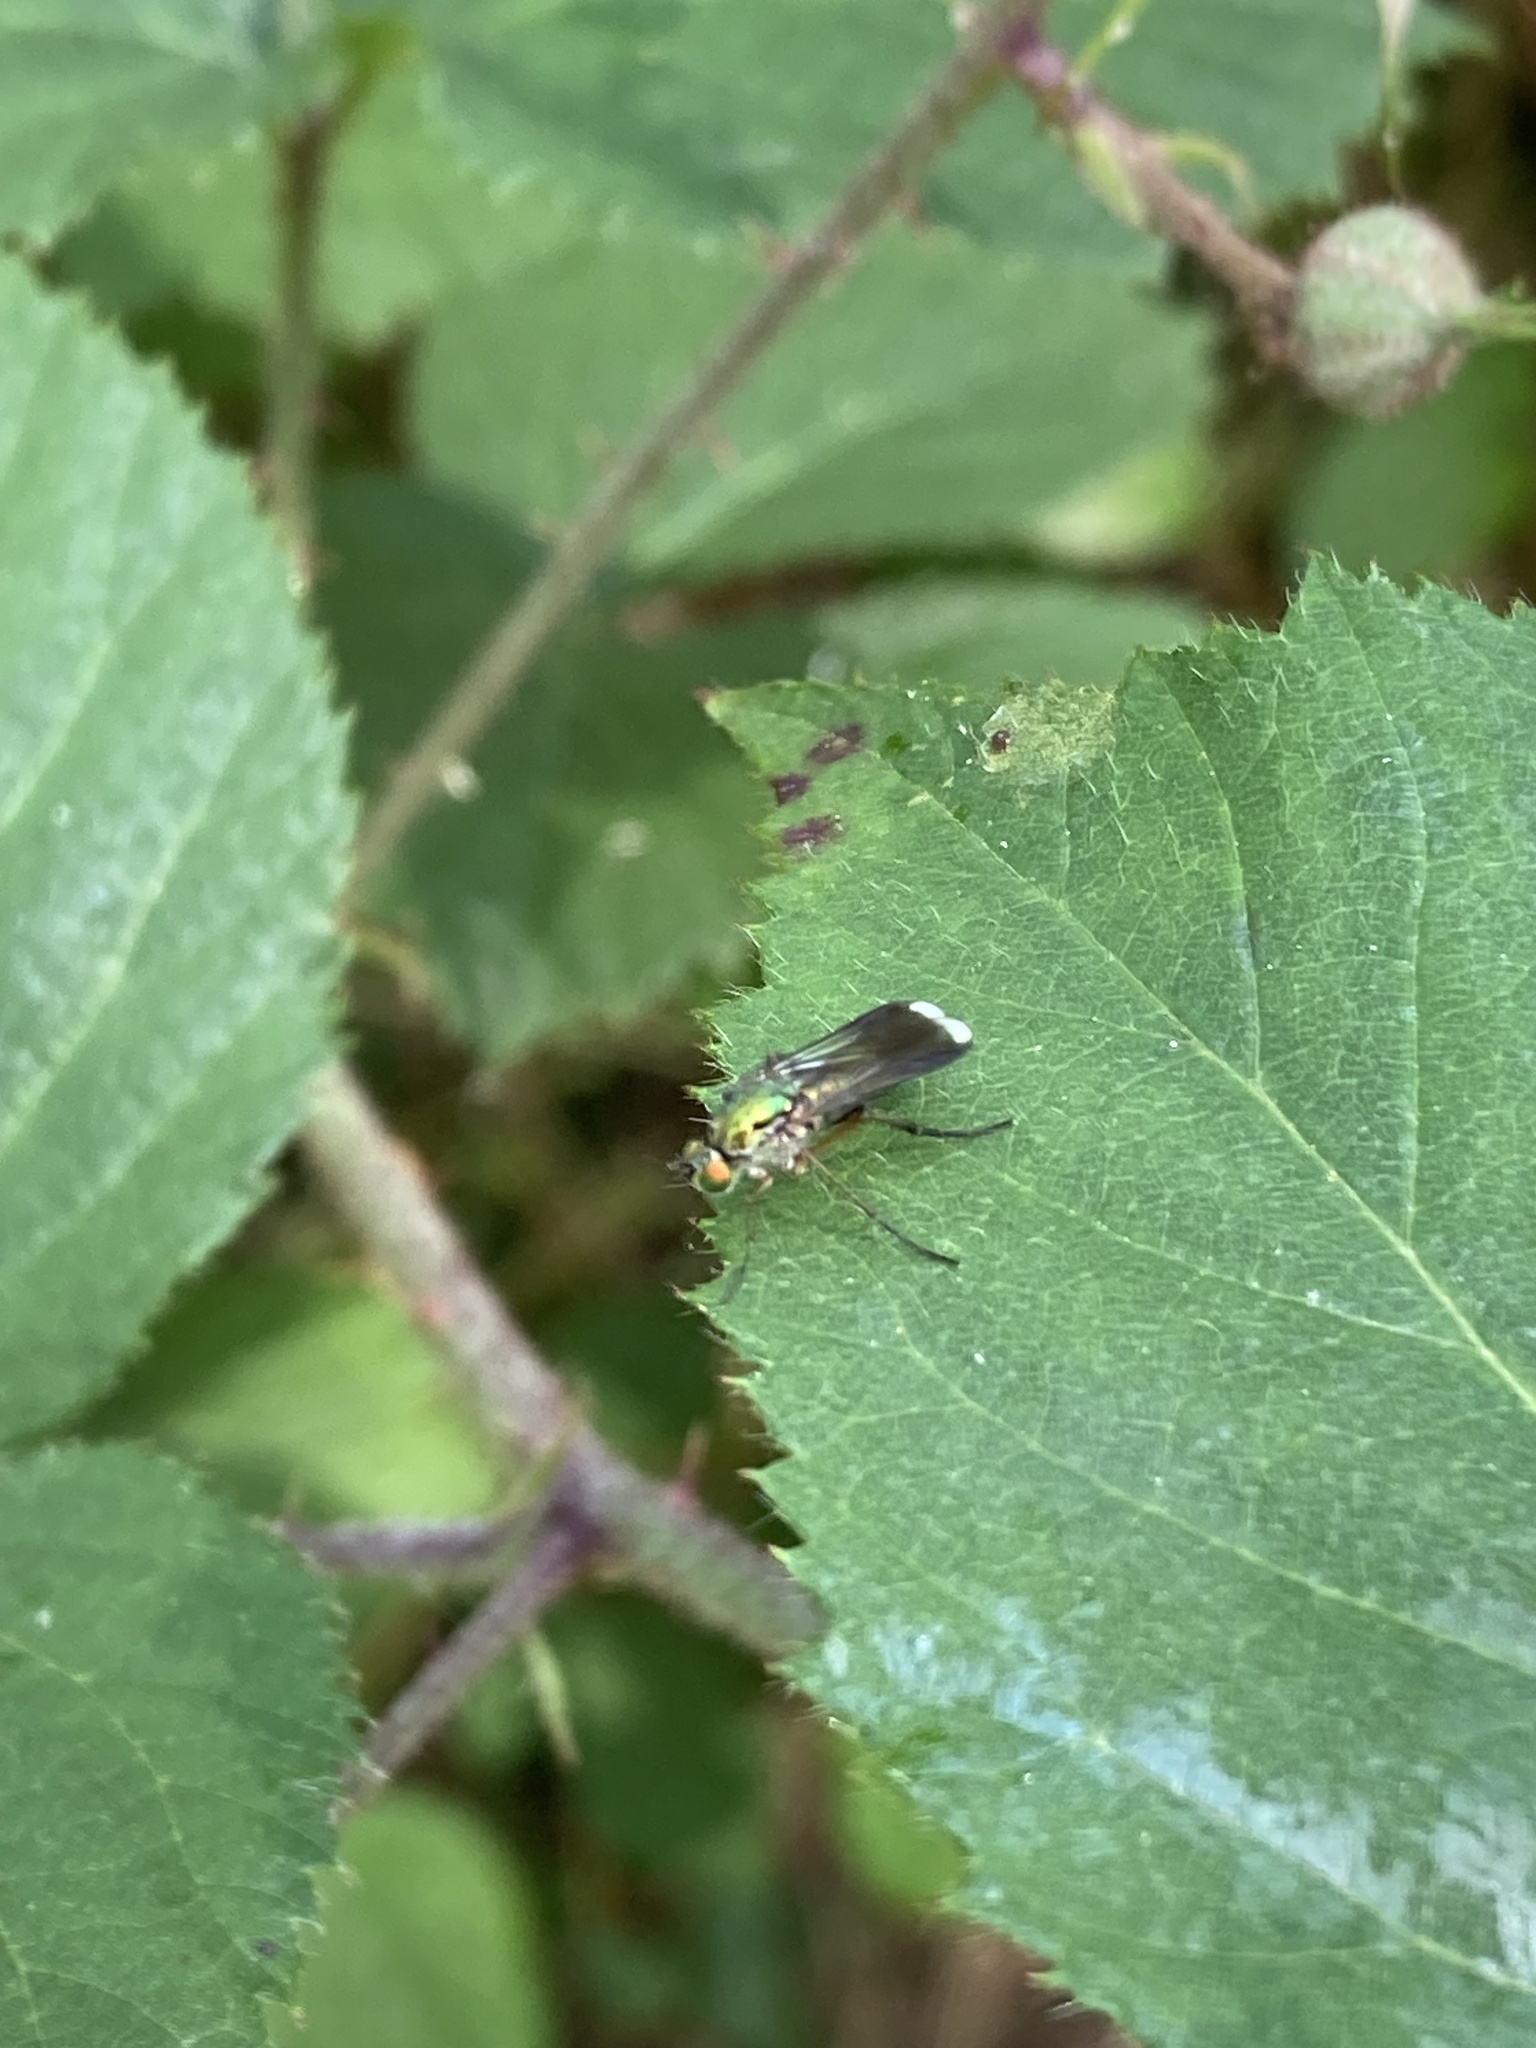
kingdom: Animalia
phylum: Arthropoda
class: Insecta
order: Diptera
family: Dolichopodidae
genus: Poecilobothrus
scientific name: Poecilobothrus nobilitatus
